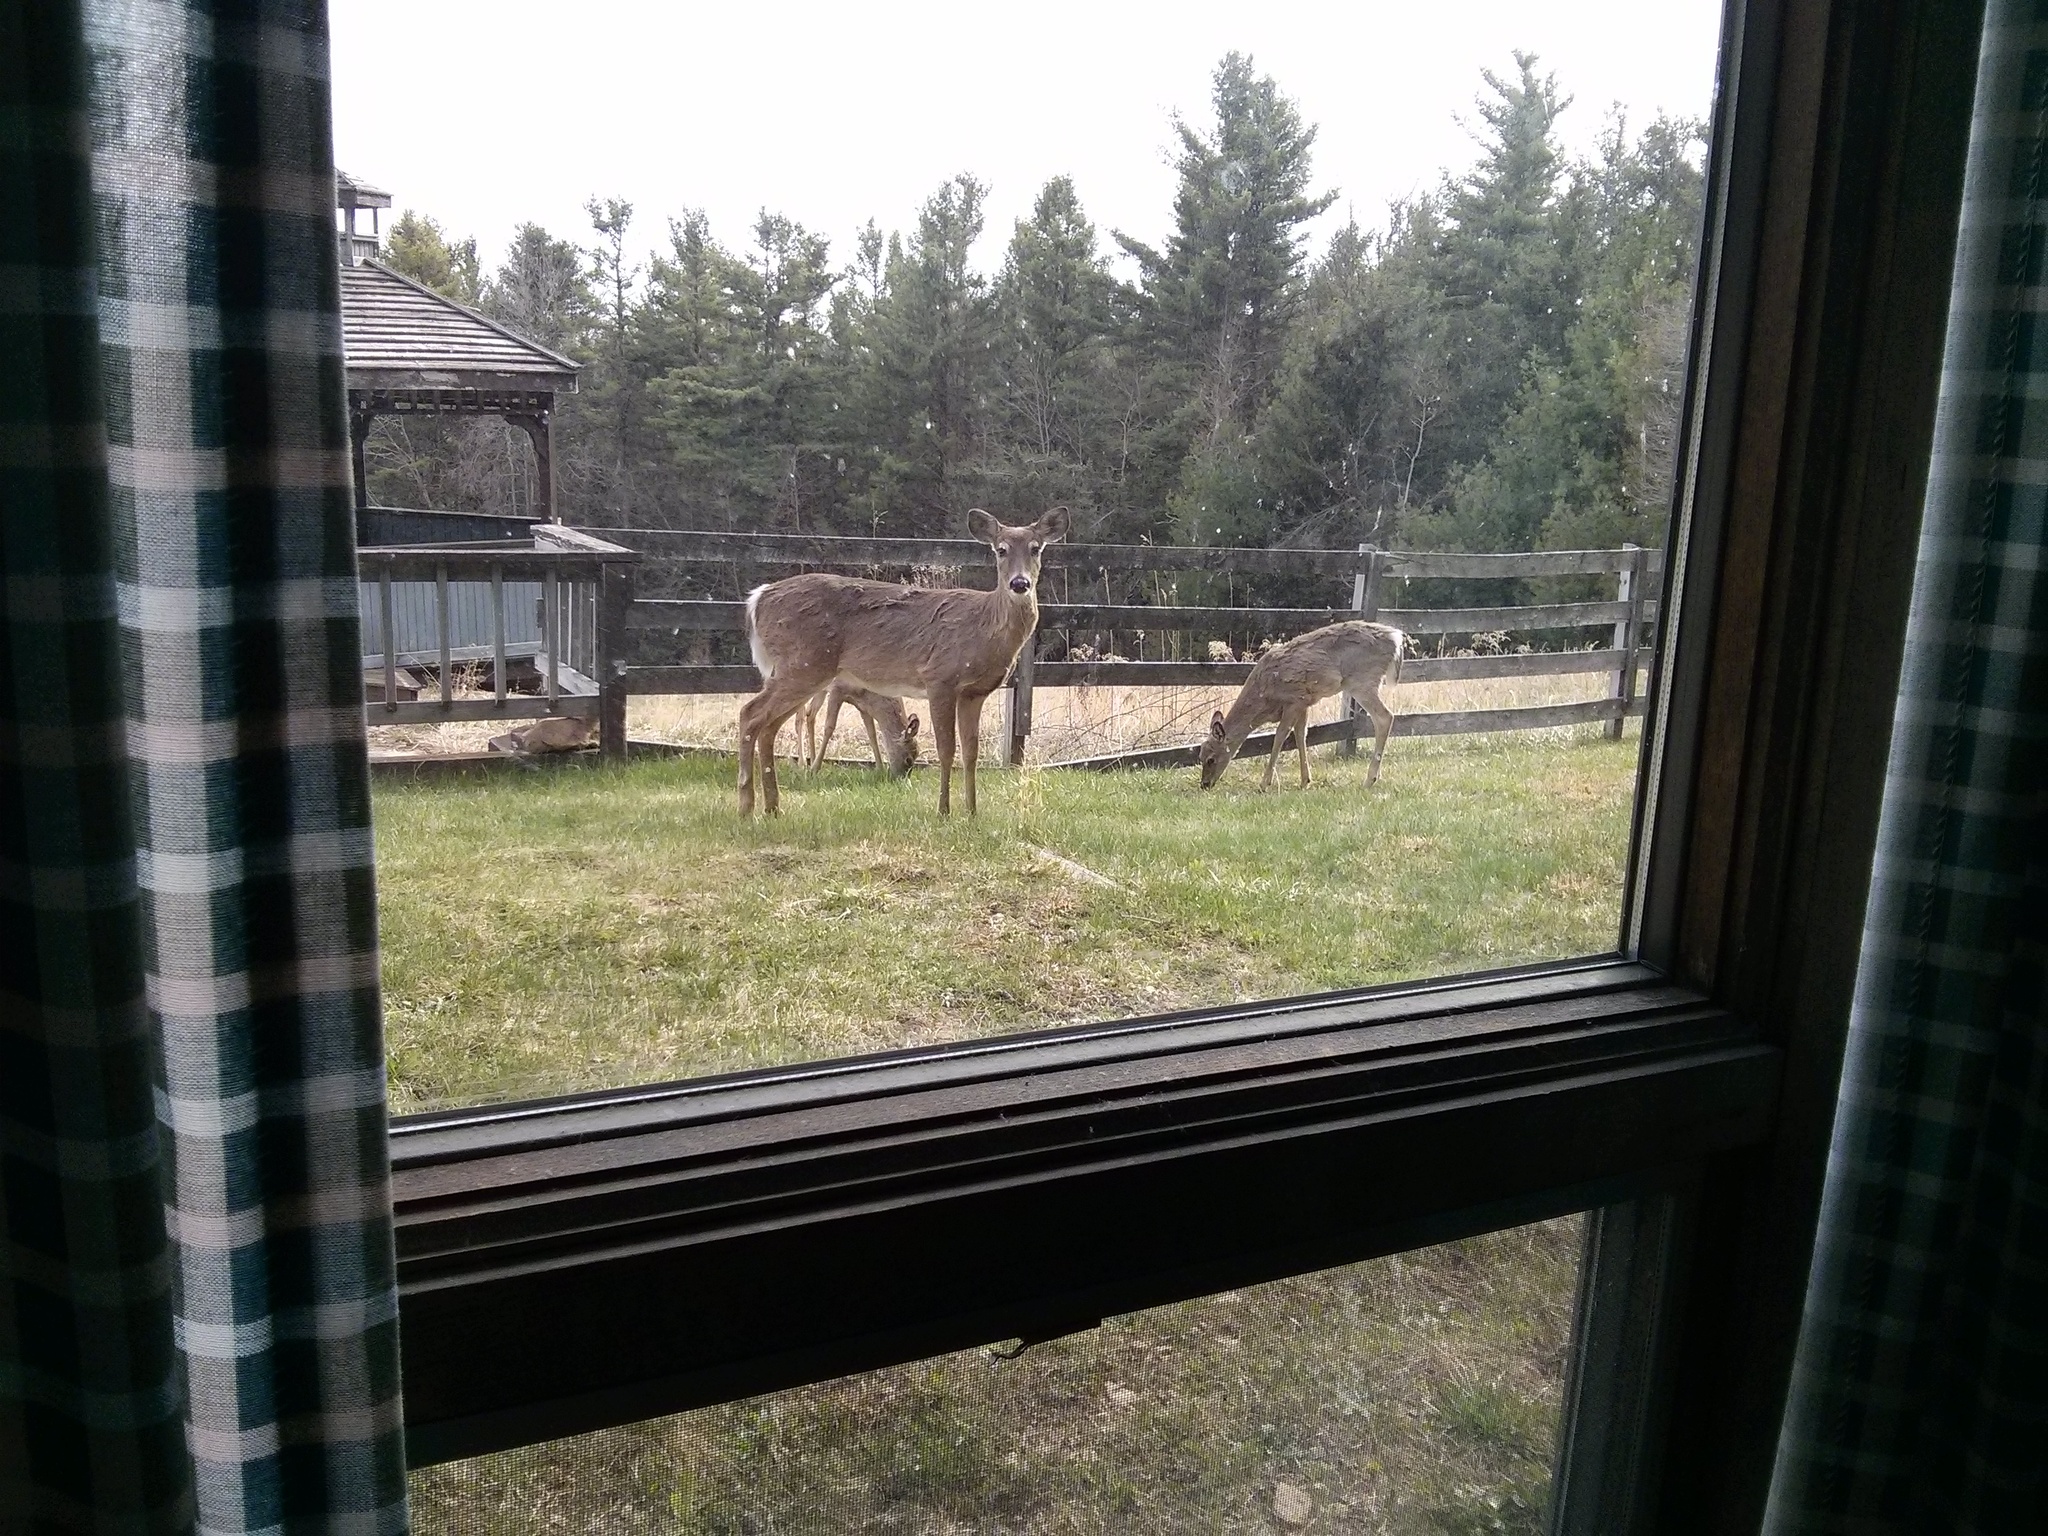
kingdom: Animalia
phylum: Chordata
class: Mammalia
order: Artiodactyla
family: Cervidae
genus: Odocoileus
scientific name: Odocoileus virginianus
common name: White-tailed deer
